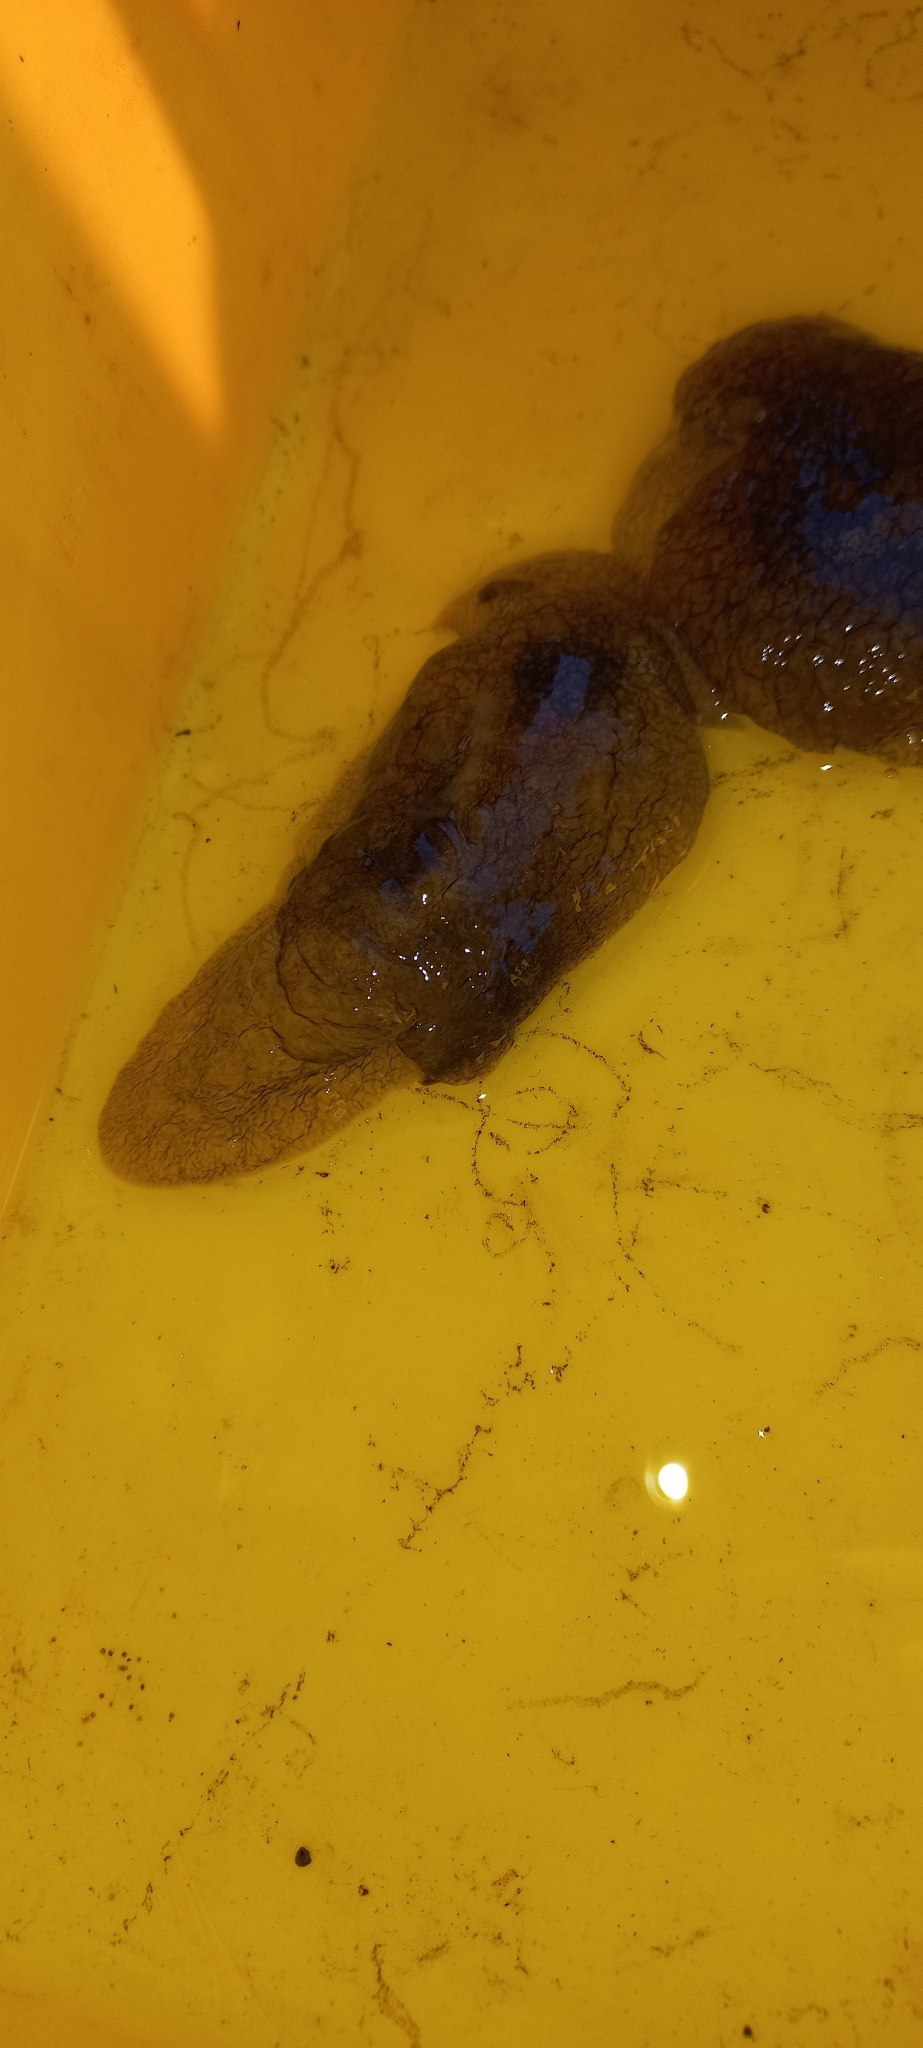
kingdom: Animalia
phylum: Mollusca
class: Gastropoda
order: Pleurobranchida
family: Pleurobranchaeidae
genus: Pleurobranchaea
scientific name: Pleurobranchaea maculata
